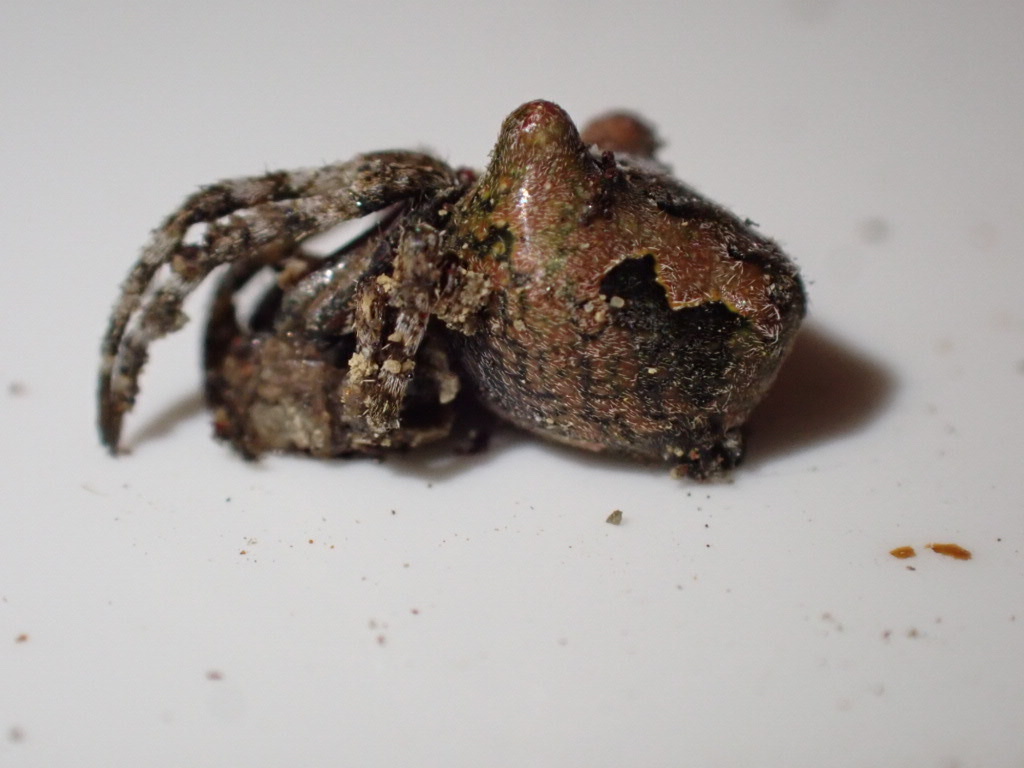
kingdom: Animalia
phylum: Arthropoda
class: Arachnida
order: Araneae
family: Araneidae
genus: Courtaraneus
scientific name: Courtaraneus orientalis
